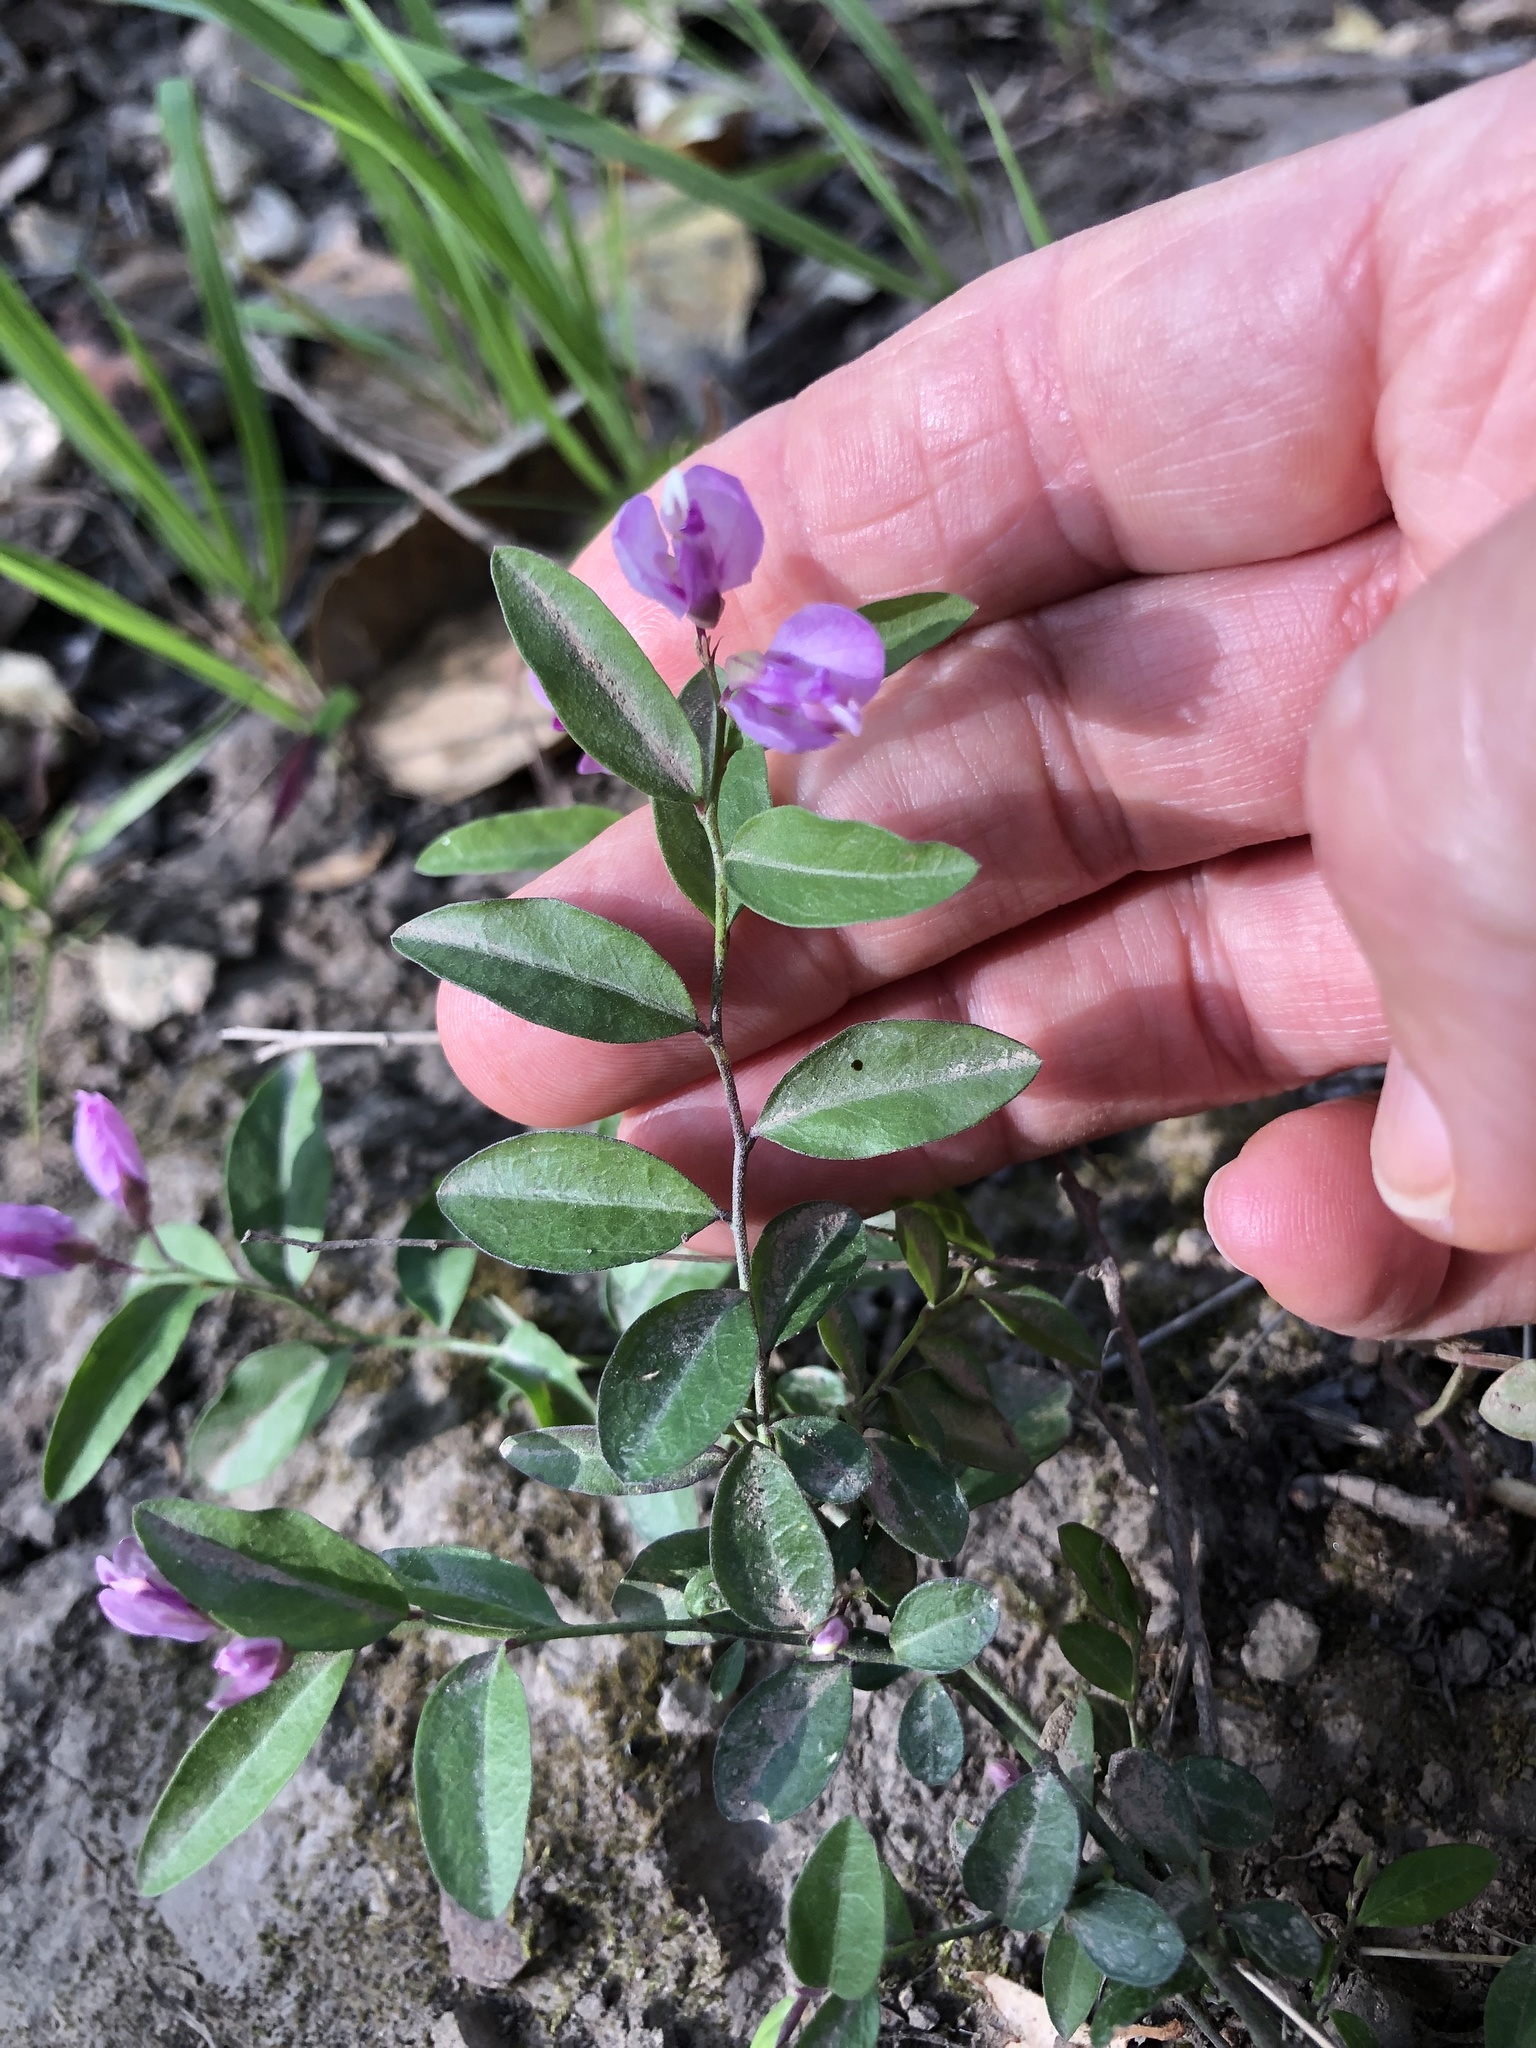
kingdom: Plantae
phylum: Tracheophyta
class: Magnoliopsida
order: Fabales
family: Polygalaceae
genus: Rhinotropis
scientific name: Rhinotropis californica
